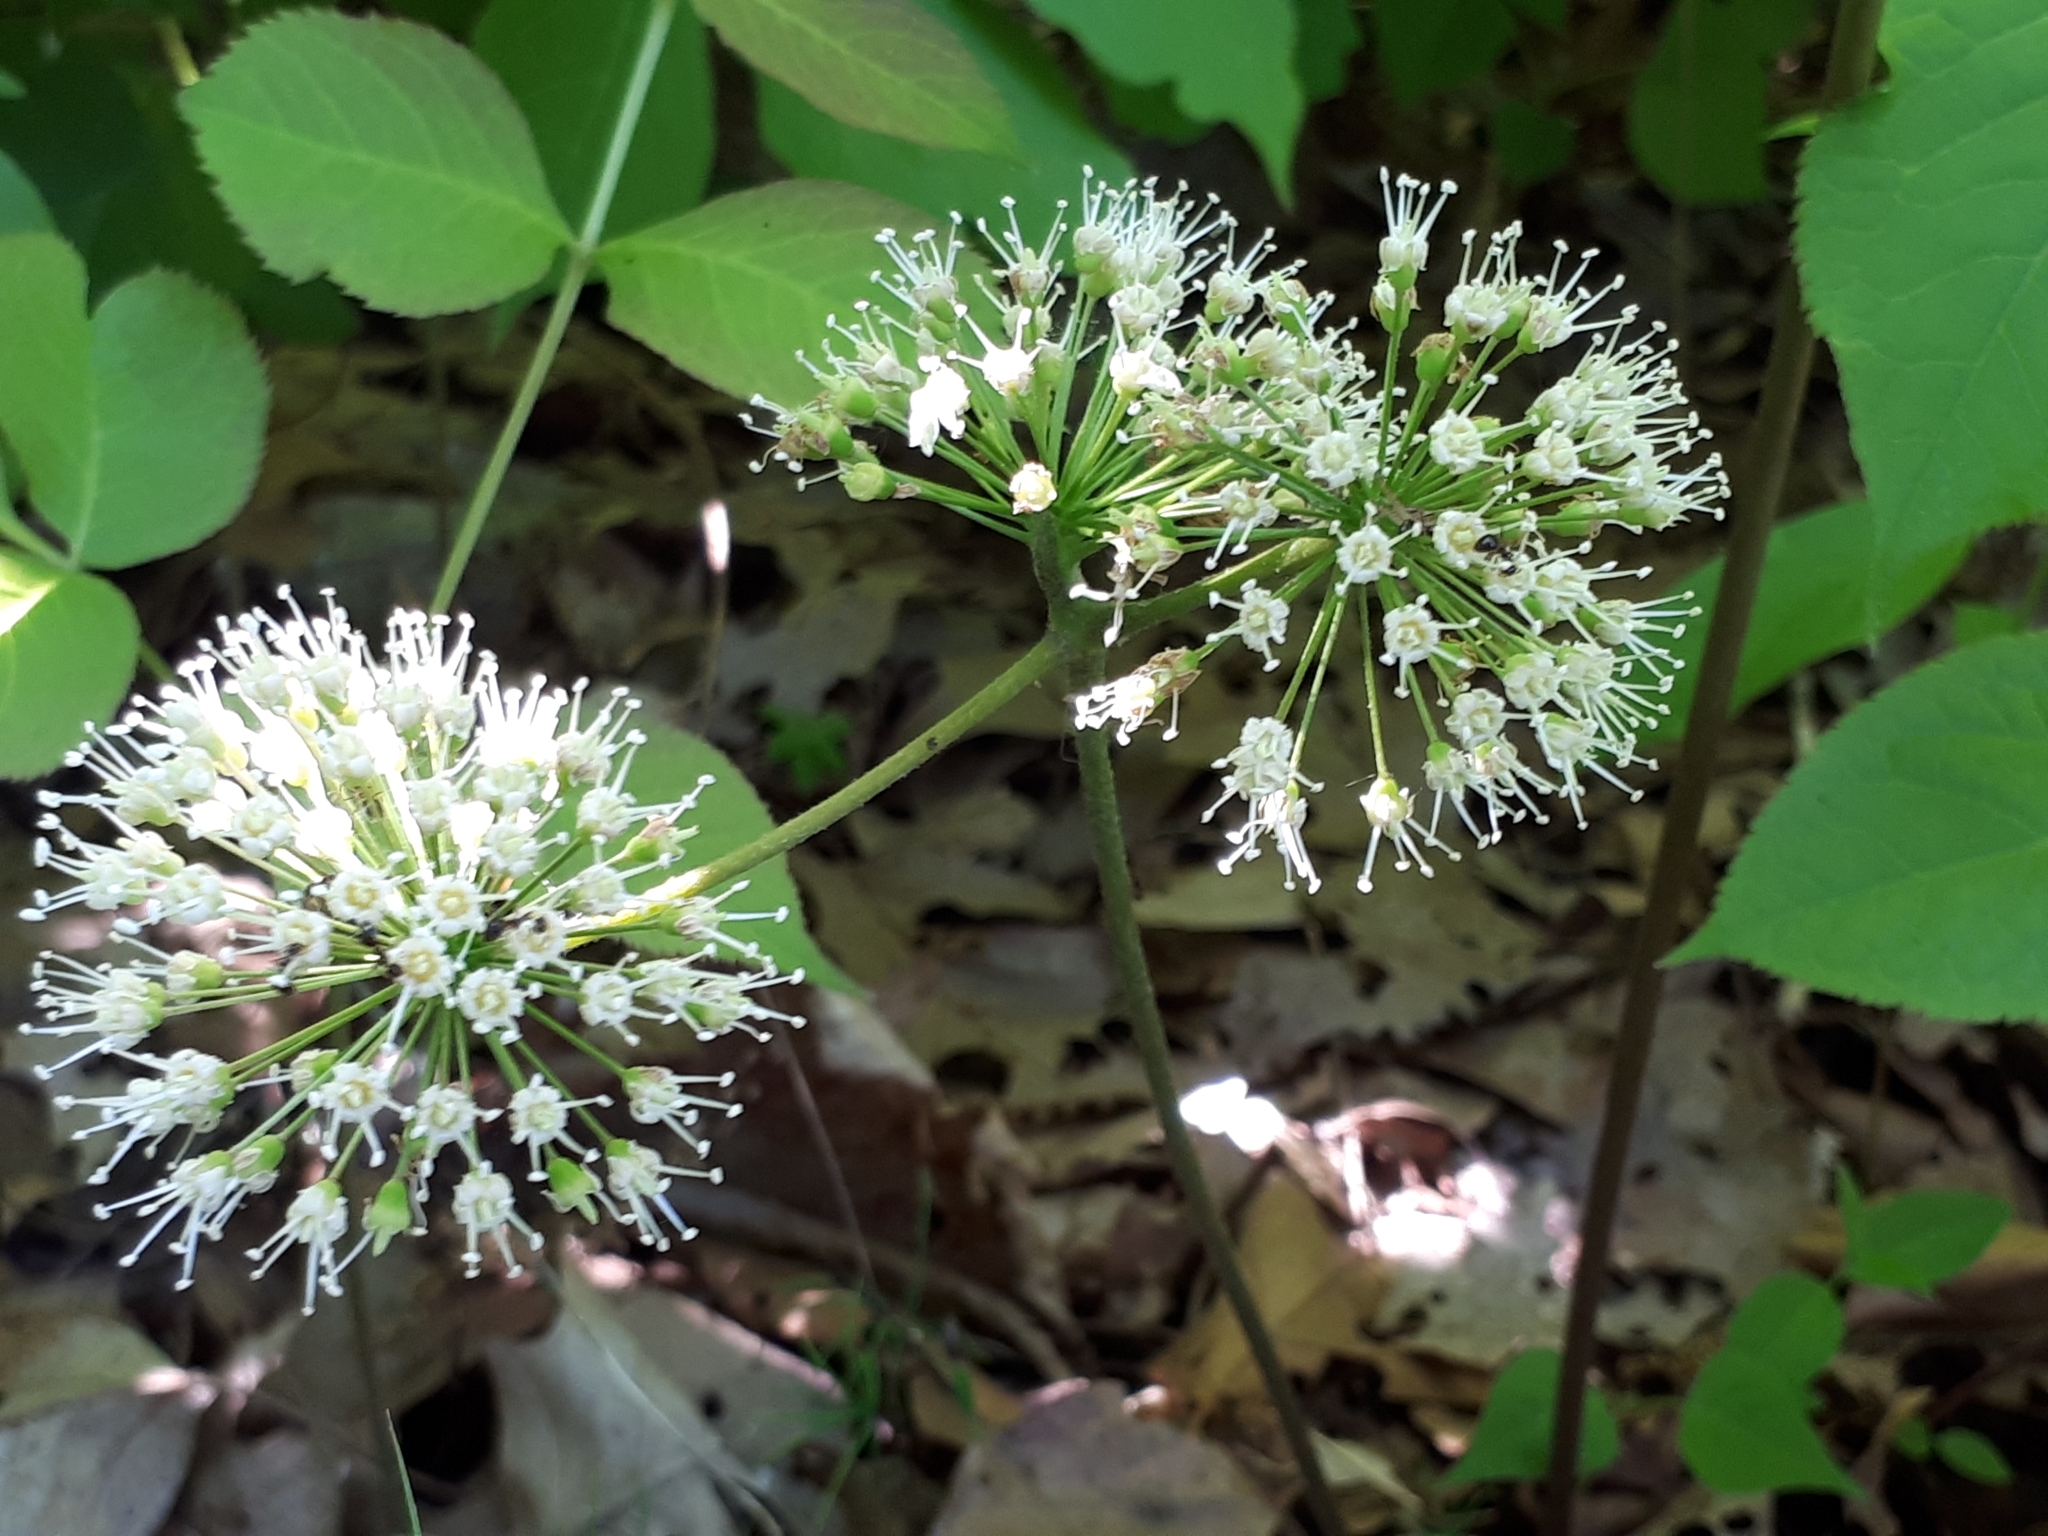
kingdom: Plantae
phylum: Tracheophyta
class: Magnoliopsida
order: Apiales
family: Araliaceae
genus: Aralia
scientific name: Aralia nudicaulis
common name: Wild sarsaparilla
